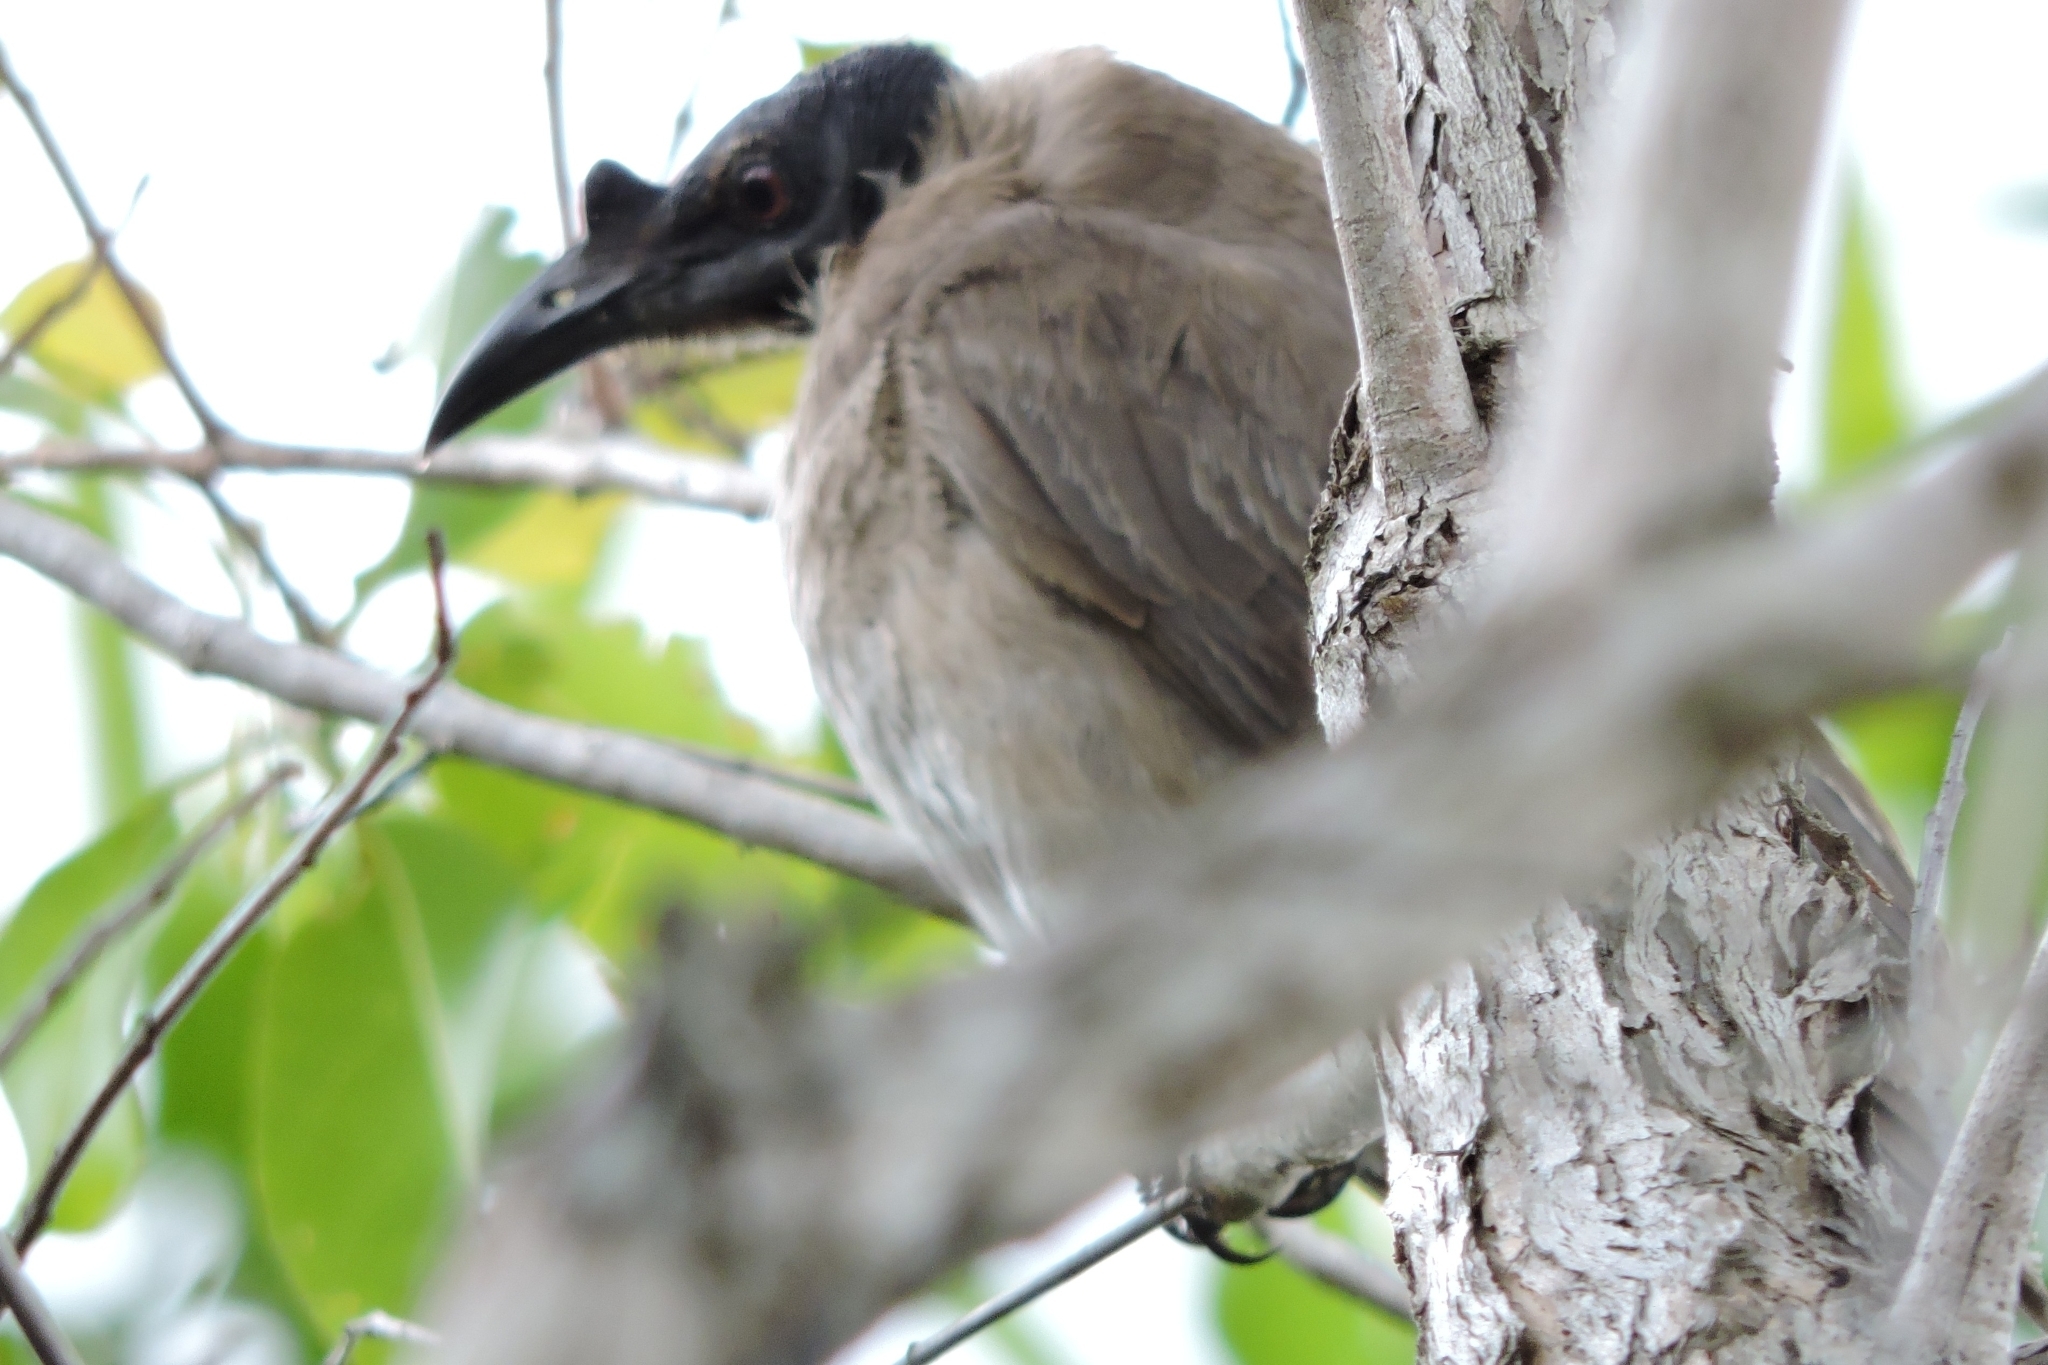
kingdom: Animalia
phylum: Chordata
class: Aves
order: Passeriformes
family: Meliphagidae
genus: Philemon
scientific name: Philemon corniculatus
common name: Noisy friarbird
